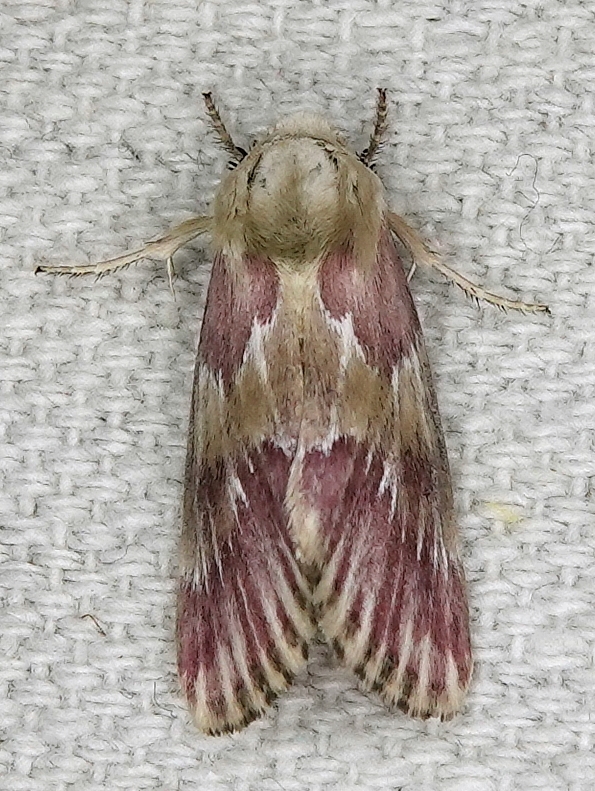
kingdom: Animalia
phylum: Arthropoda
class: Insecta
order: Lepidoptera
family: Noctuidae
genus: Schinia
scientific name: Schinia sanguinea
